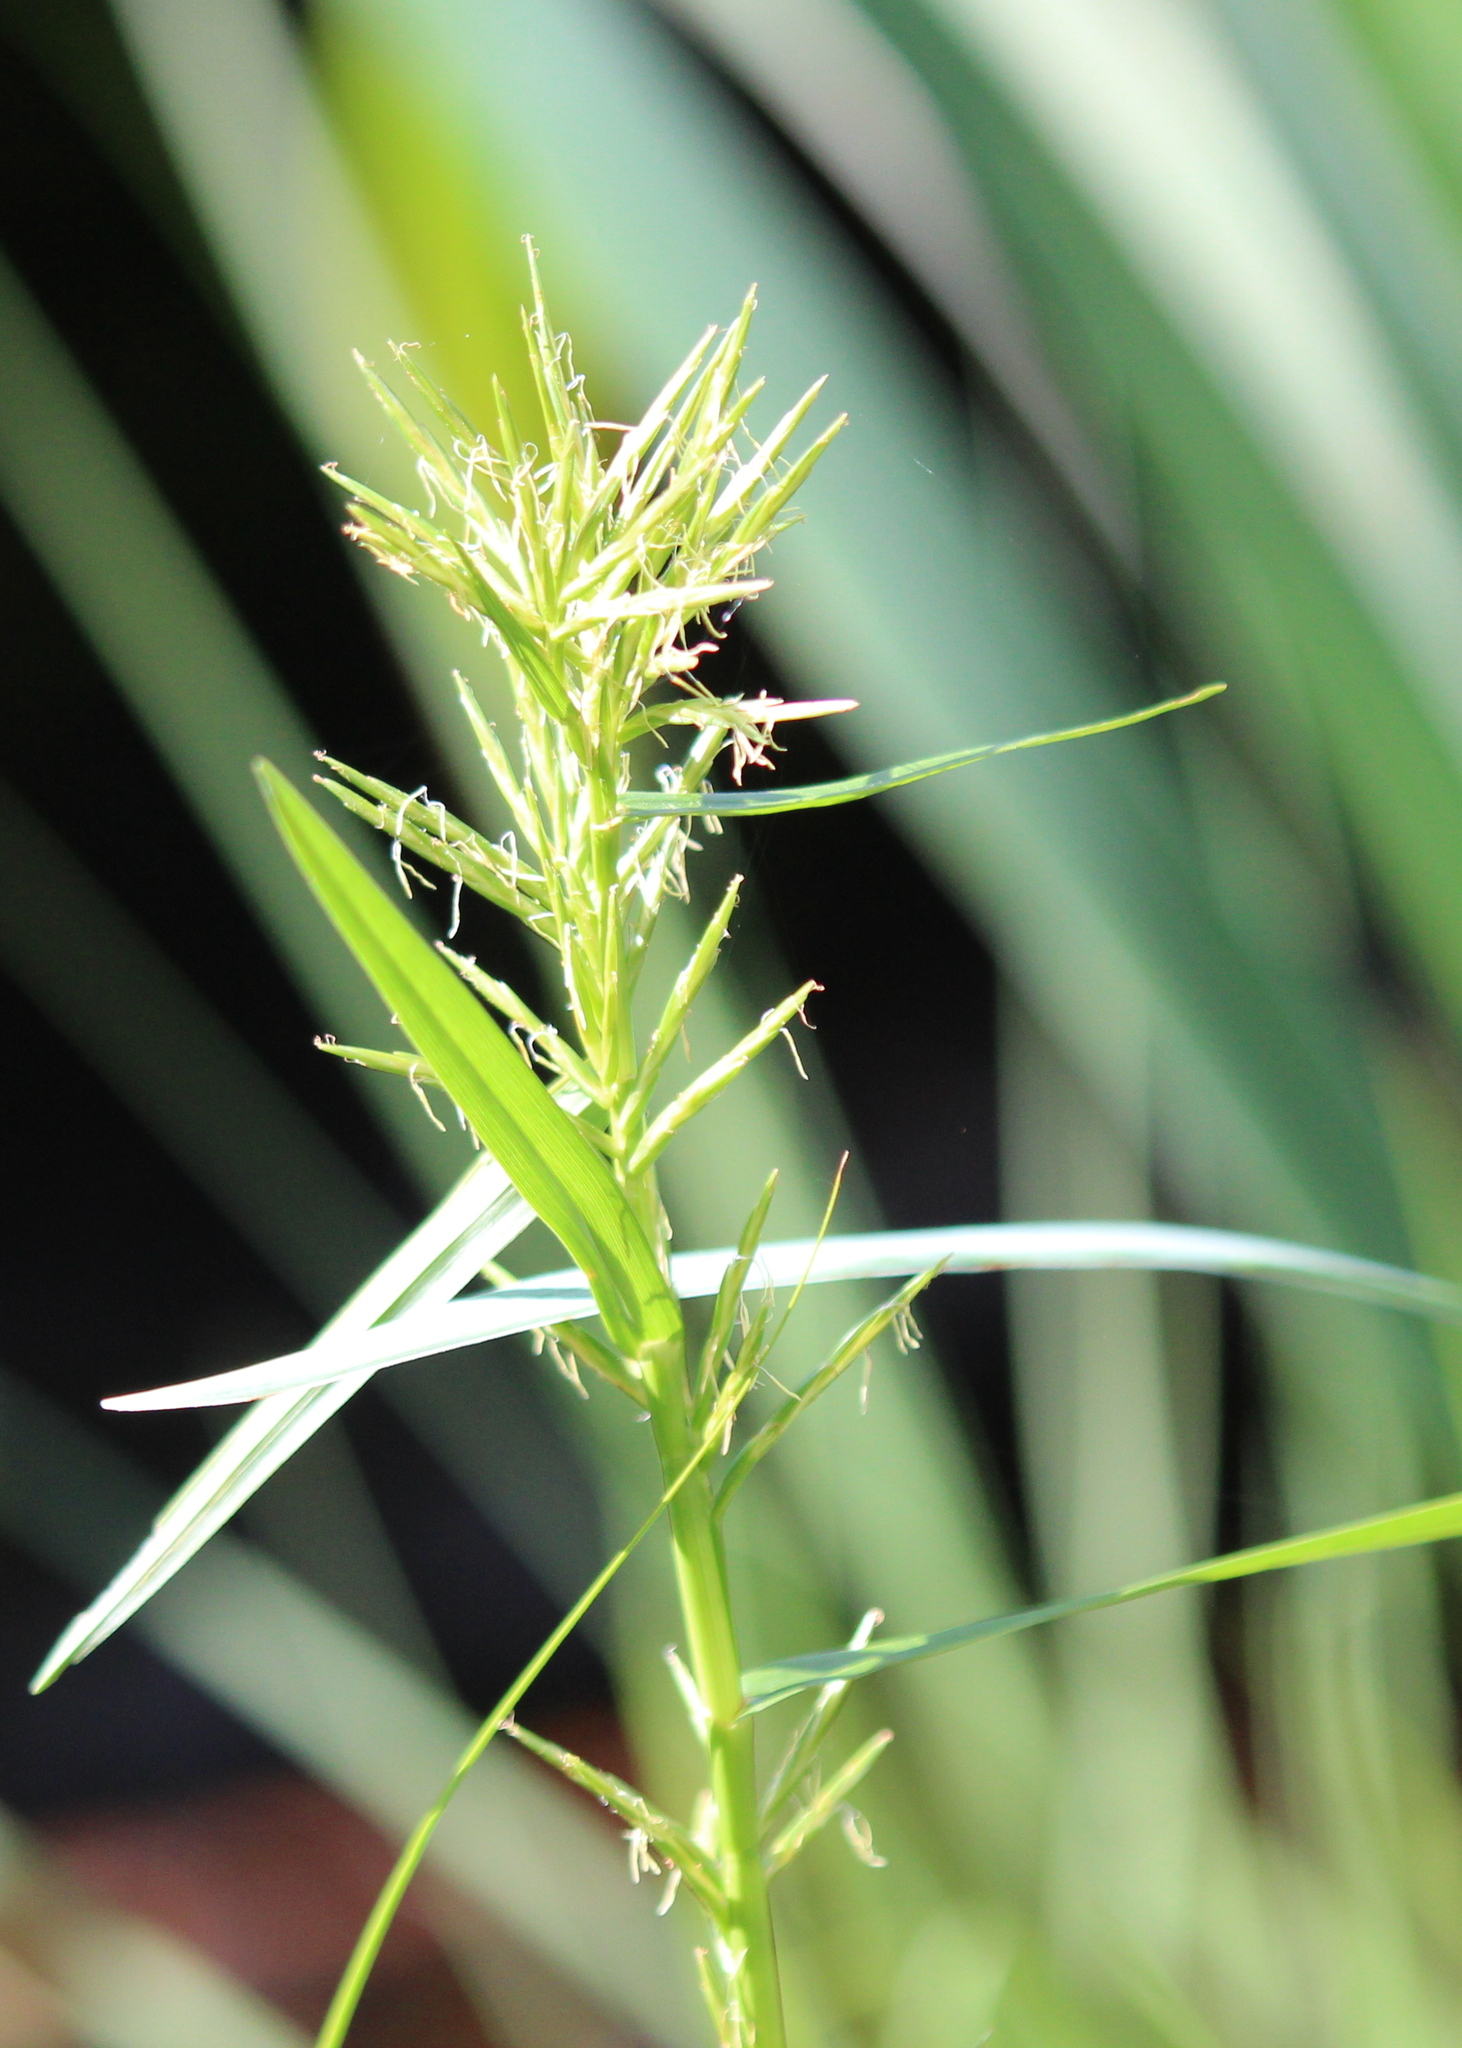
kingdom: Plantae
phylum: Tracheophyta
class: Liliopsida
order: Poales
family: Cyperaceae
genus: Dulichium
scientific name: Dulichium arundinaceum
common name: Three-way sedge
